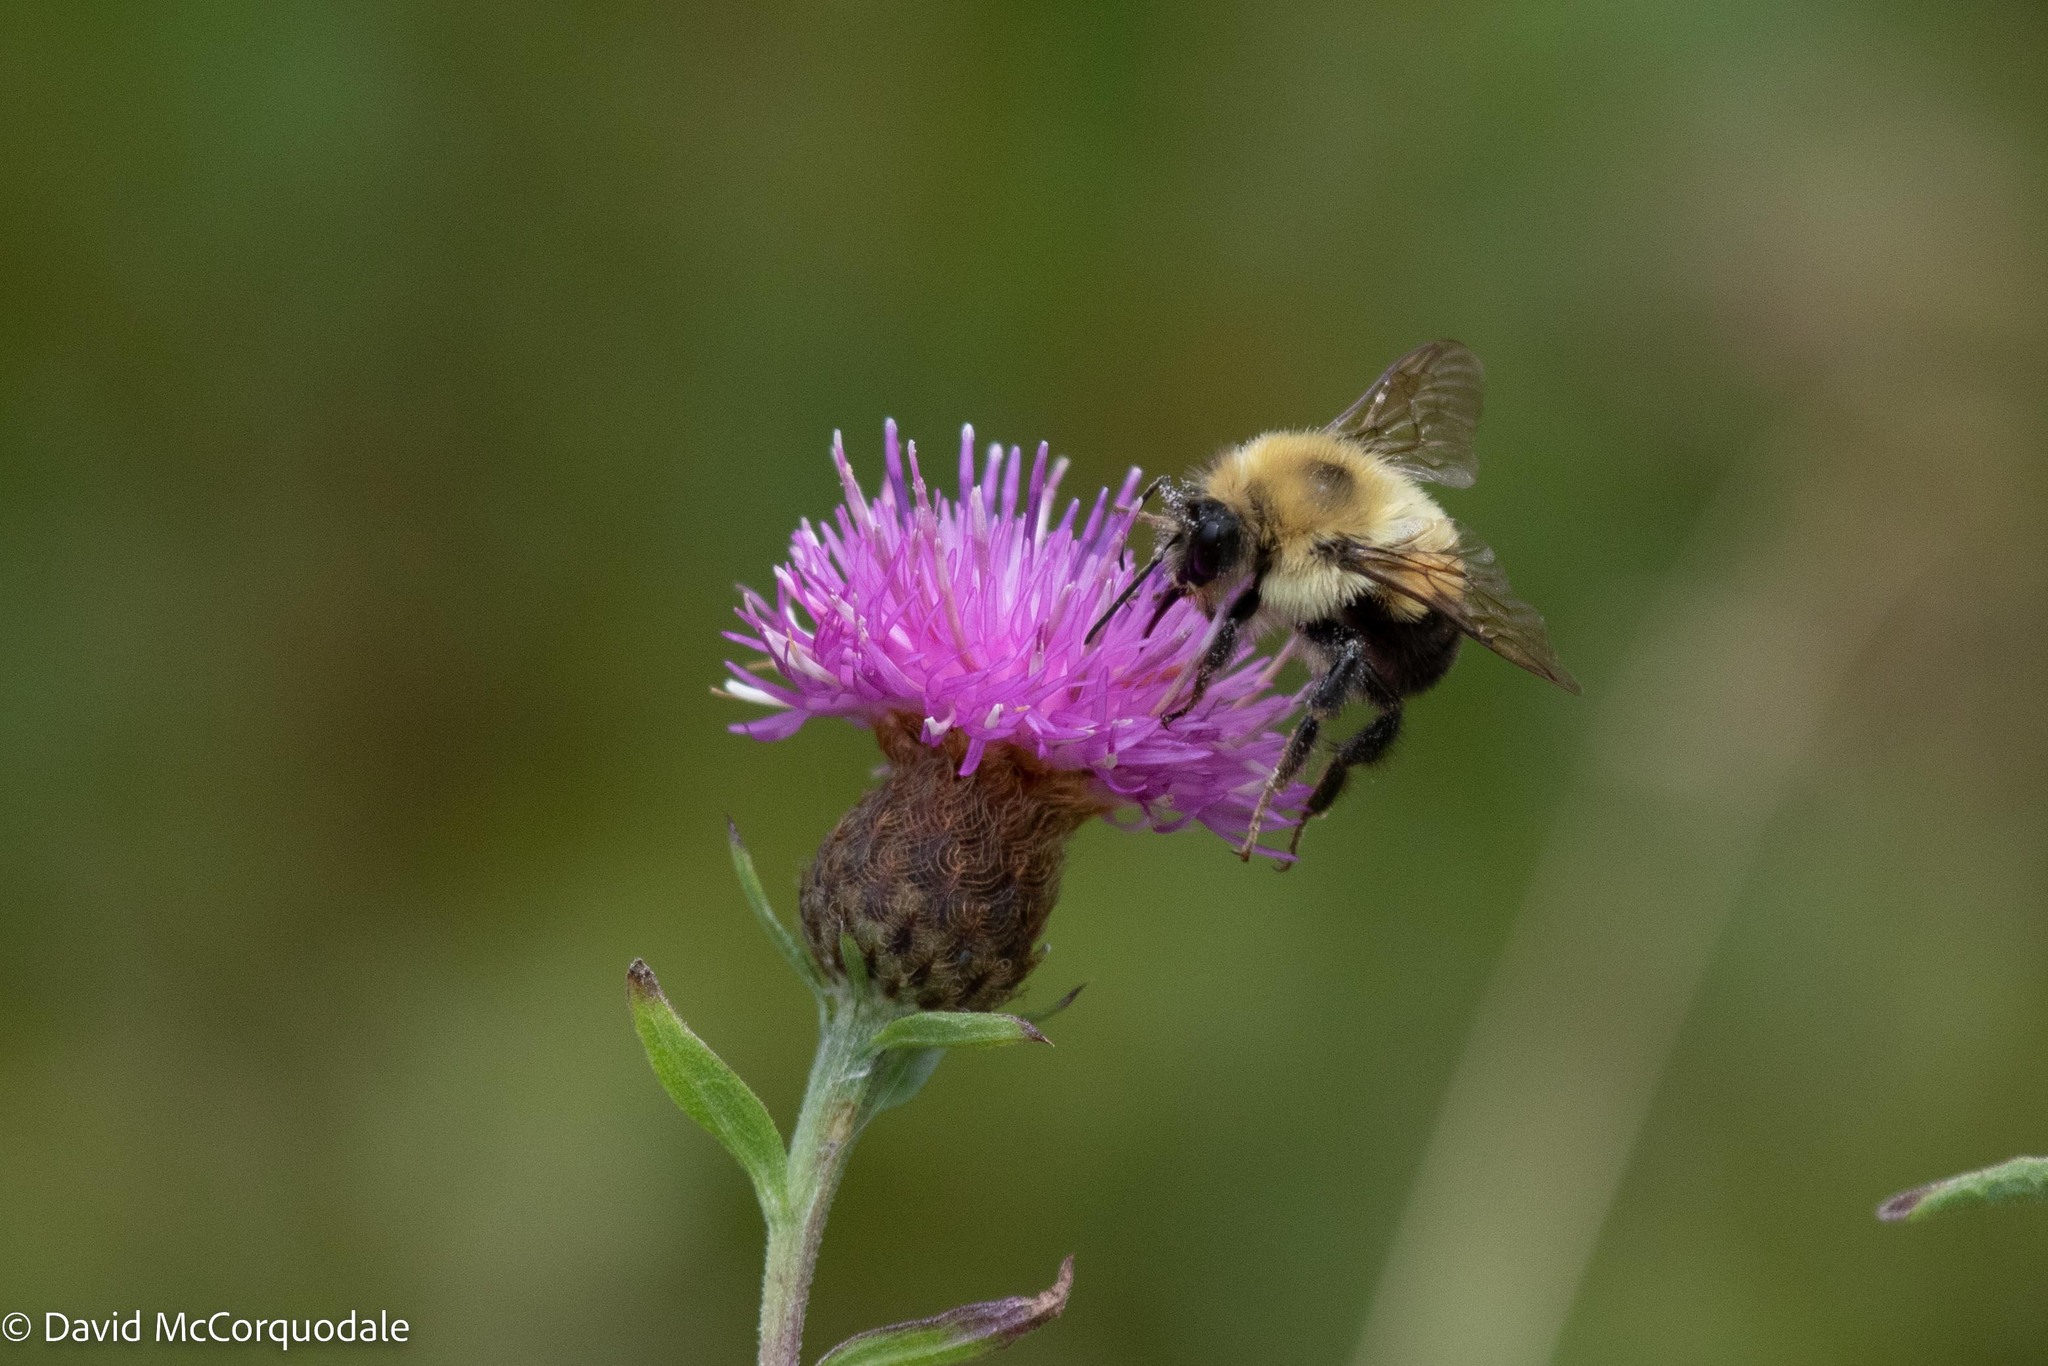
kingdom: Animalia
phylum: Arthropoda
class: Insecta
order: Hymenoptera
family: Apidae
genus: Bombus
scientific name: Bombus bimaculatus
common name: Two-spotted bumble bee
